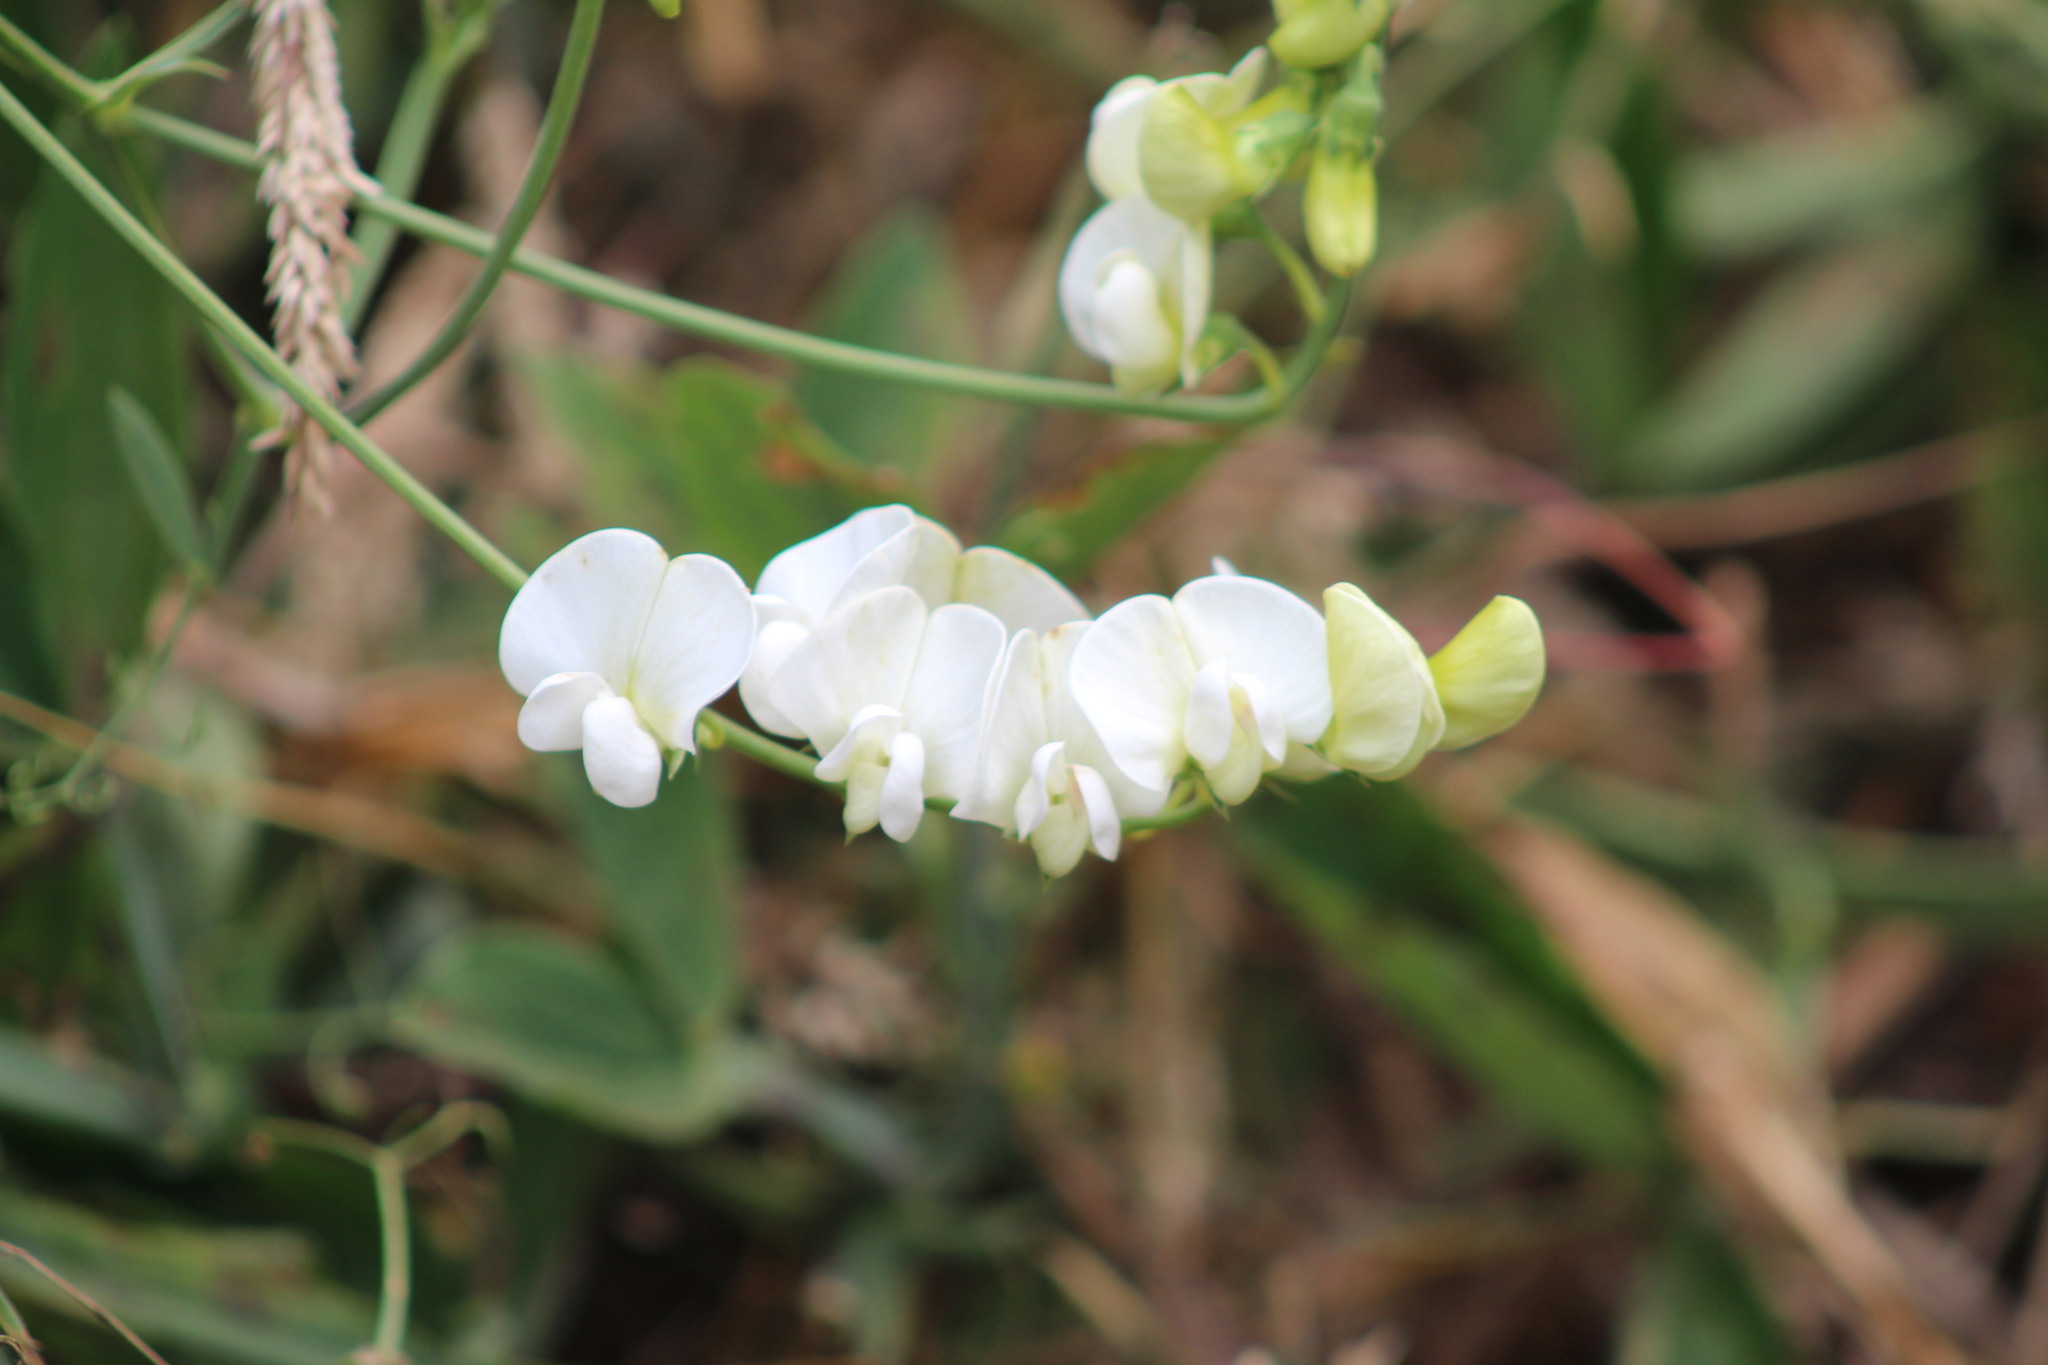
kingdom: Plantae
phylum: Tracheophyta
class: Magnoliopsida
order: Fabales
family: Fabaceae
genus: Lathyrus
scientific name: Lathyrus latifolius
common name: Perennial pea
